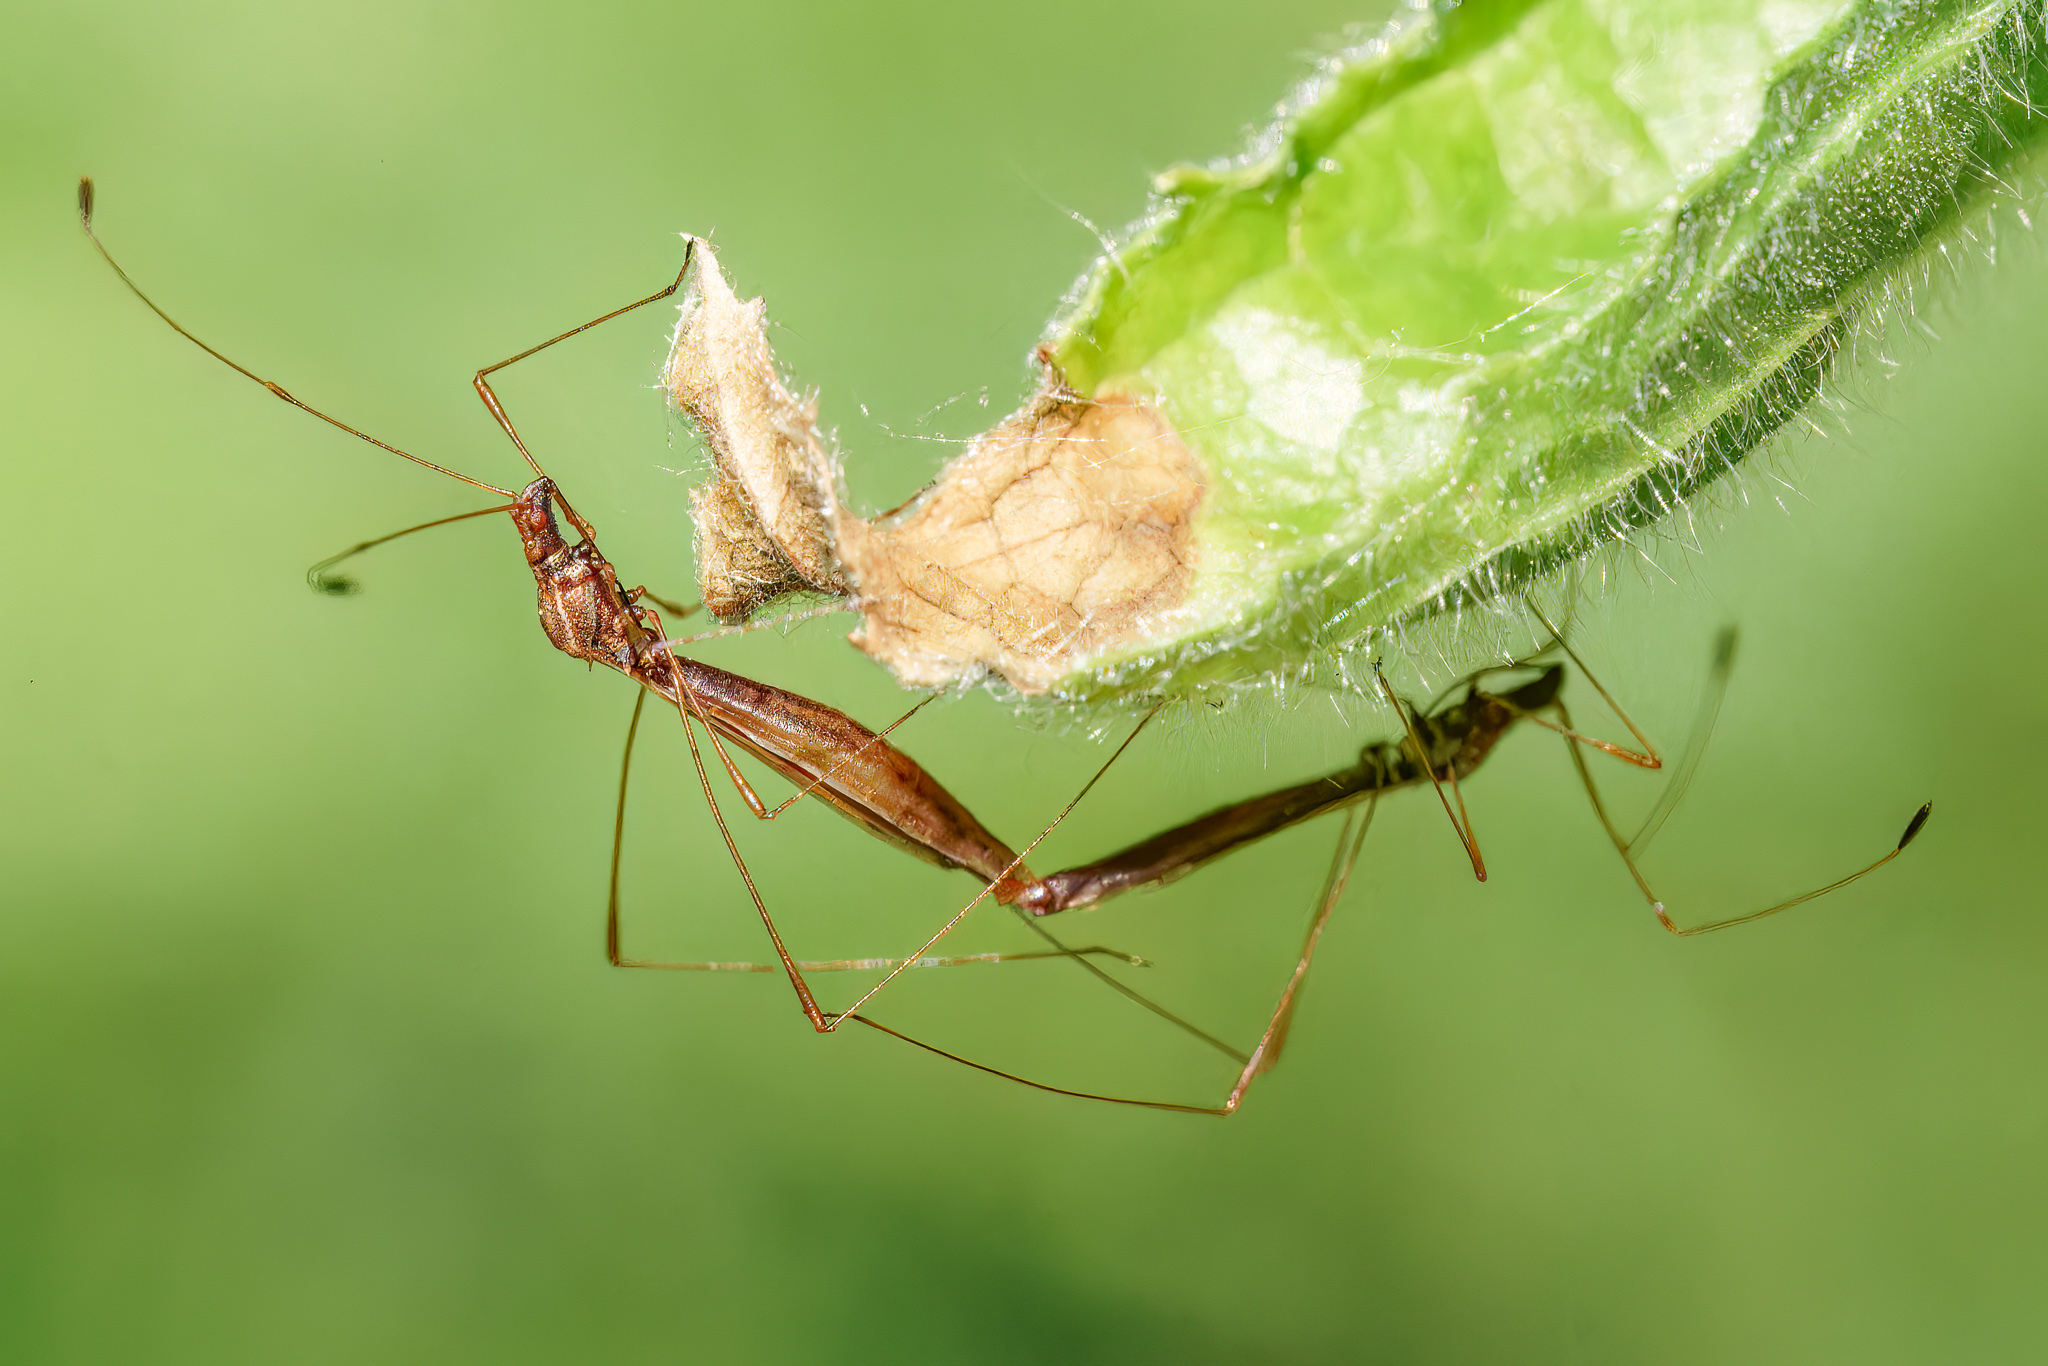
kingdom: Animalia
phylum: Arthropoda
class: Insecta
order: Hemiptera
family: Berytidae
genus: Jalysus
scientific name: Jalysus wickhami
